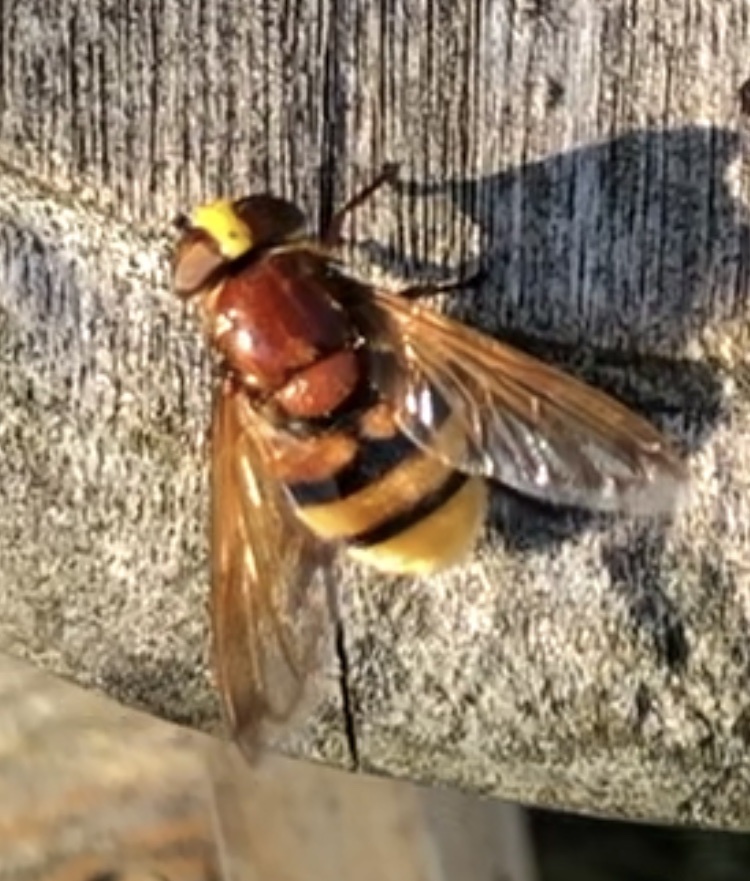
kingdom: Animalia
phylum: Arthropoda
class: Insecta
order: Diptera
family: Syrphidae
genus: Volucella
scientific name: Volucella zonaria
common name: Hornet hoverfly
